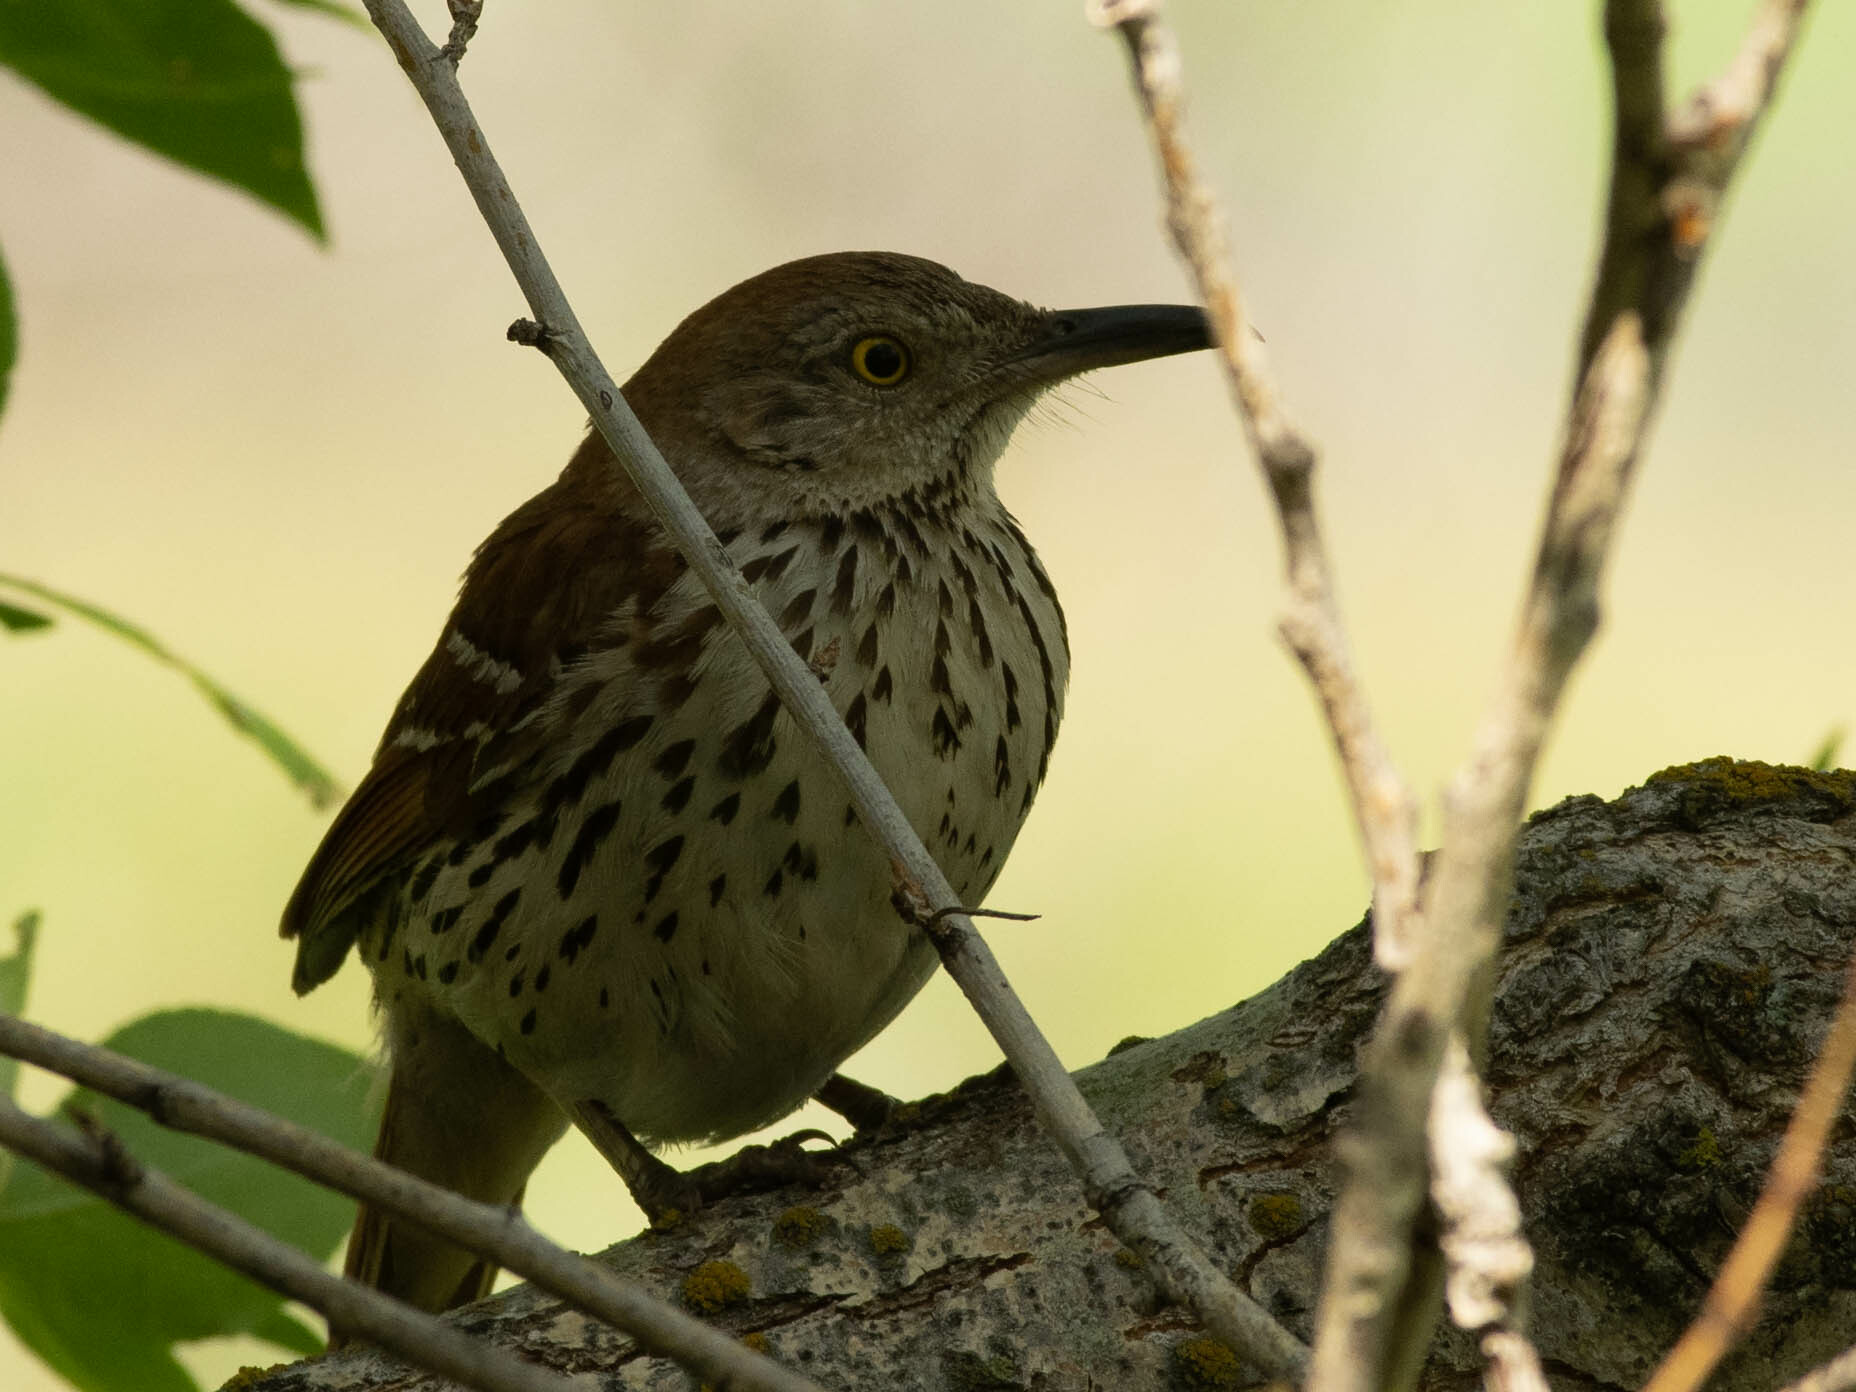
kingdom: Animalia
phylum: Chordata
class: Aves
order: Passeriformes
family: Mimidae
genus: Toxostoma
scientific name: Toxostoma rufum
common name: Brown thrasher
